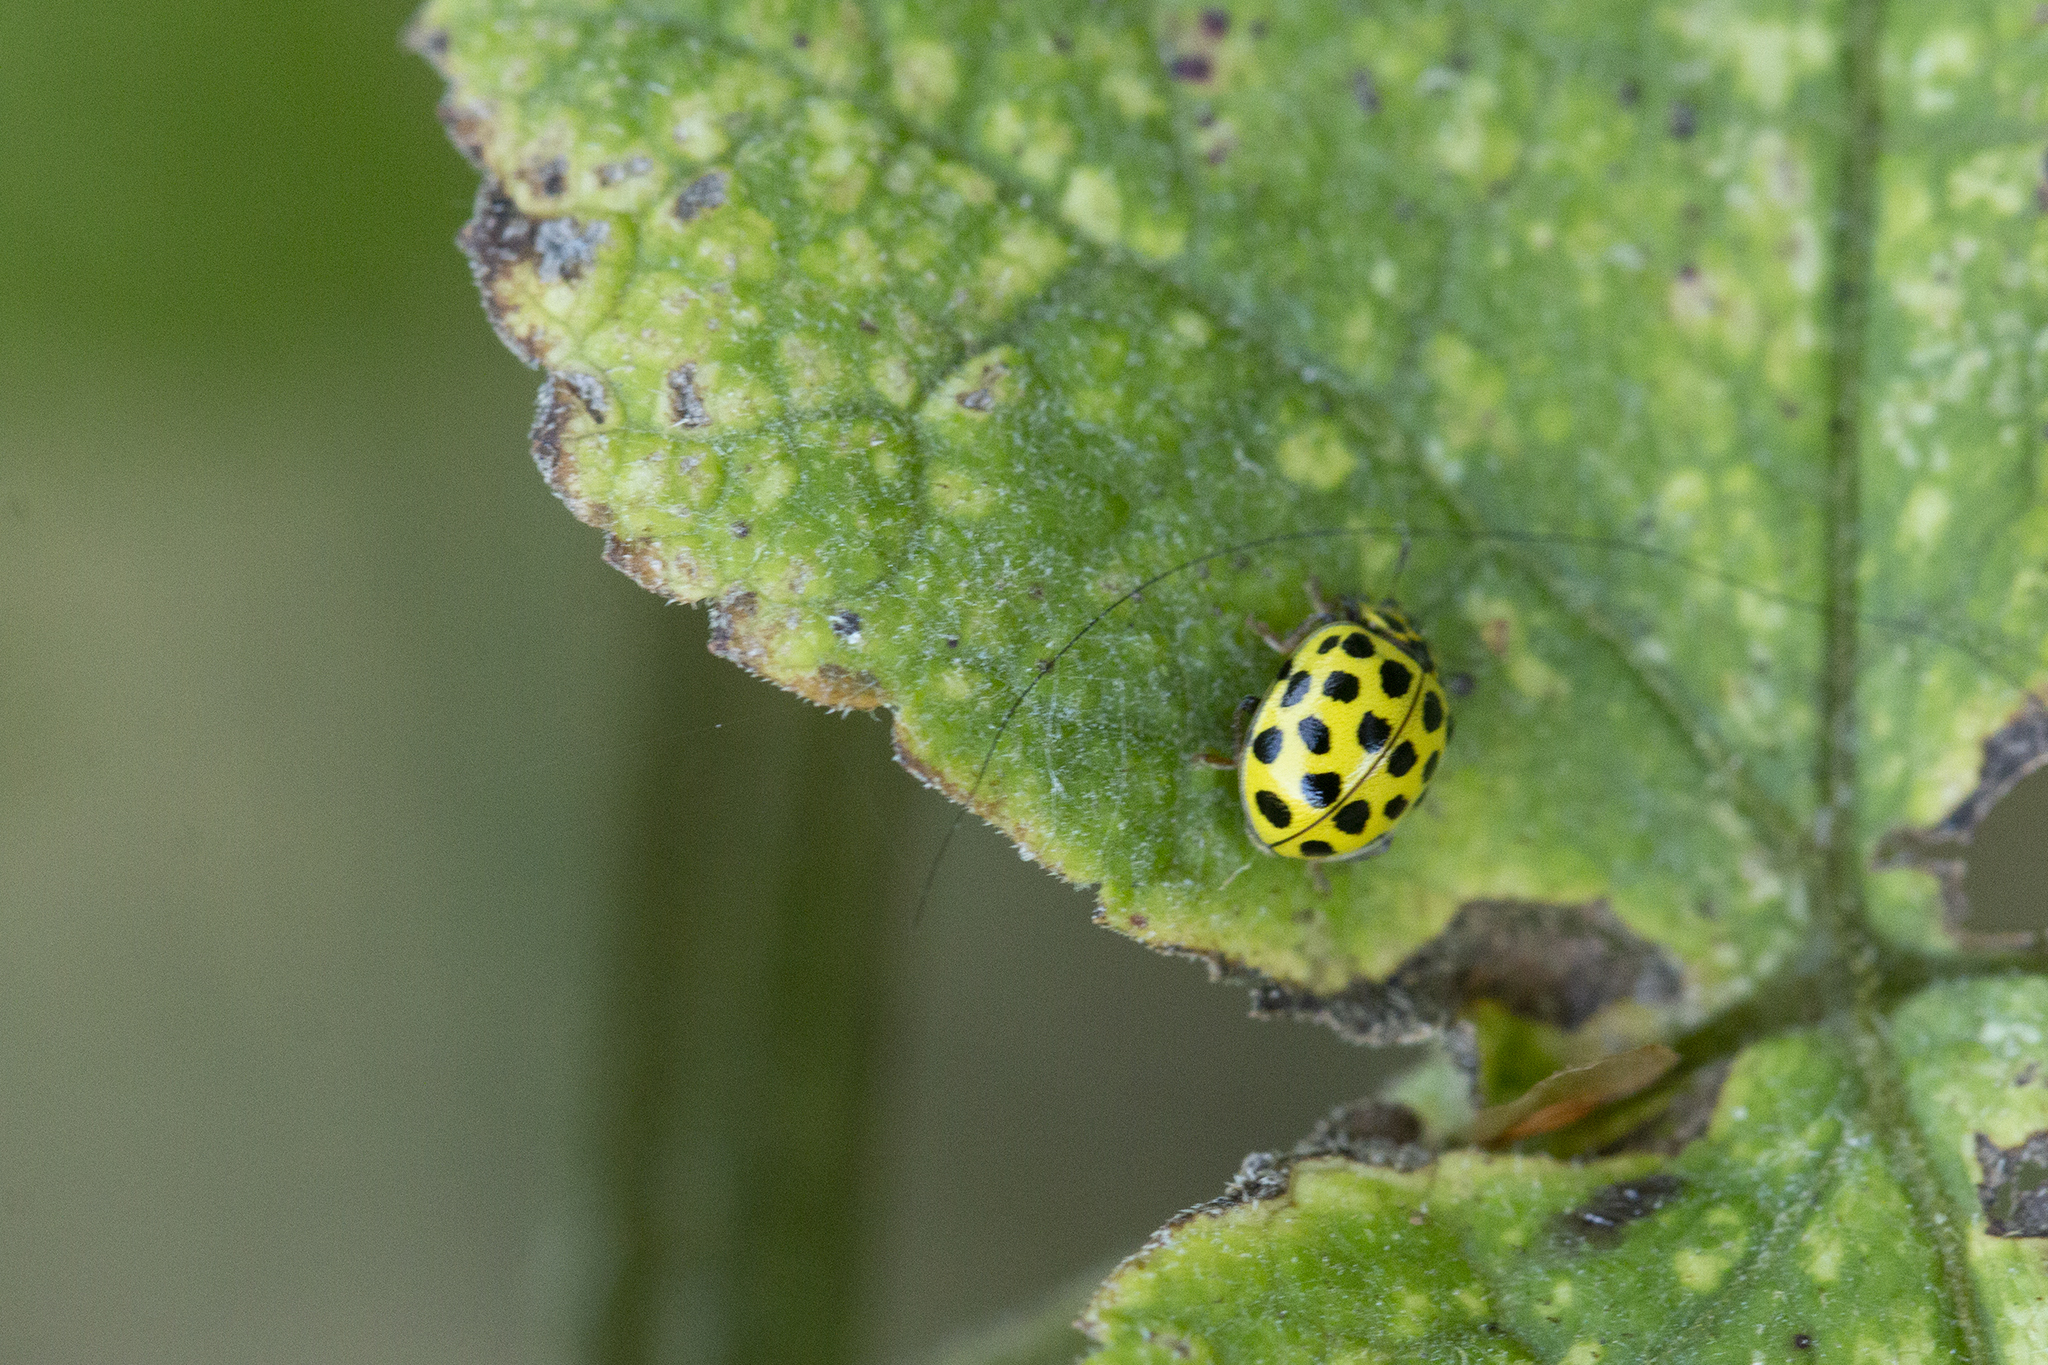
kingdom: Animalia
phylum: Arthropoda
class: Insecta
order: Coleoptera
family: Coccinellidae
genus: Psyllobora
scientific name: Psyllobora vigintiduopunctata
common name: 22-spot ladybird
